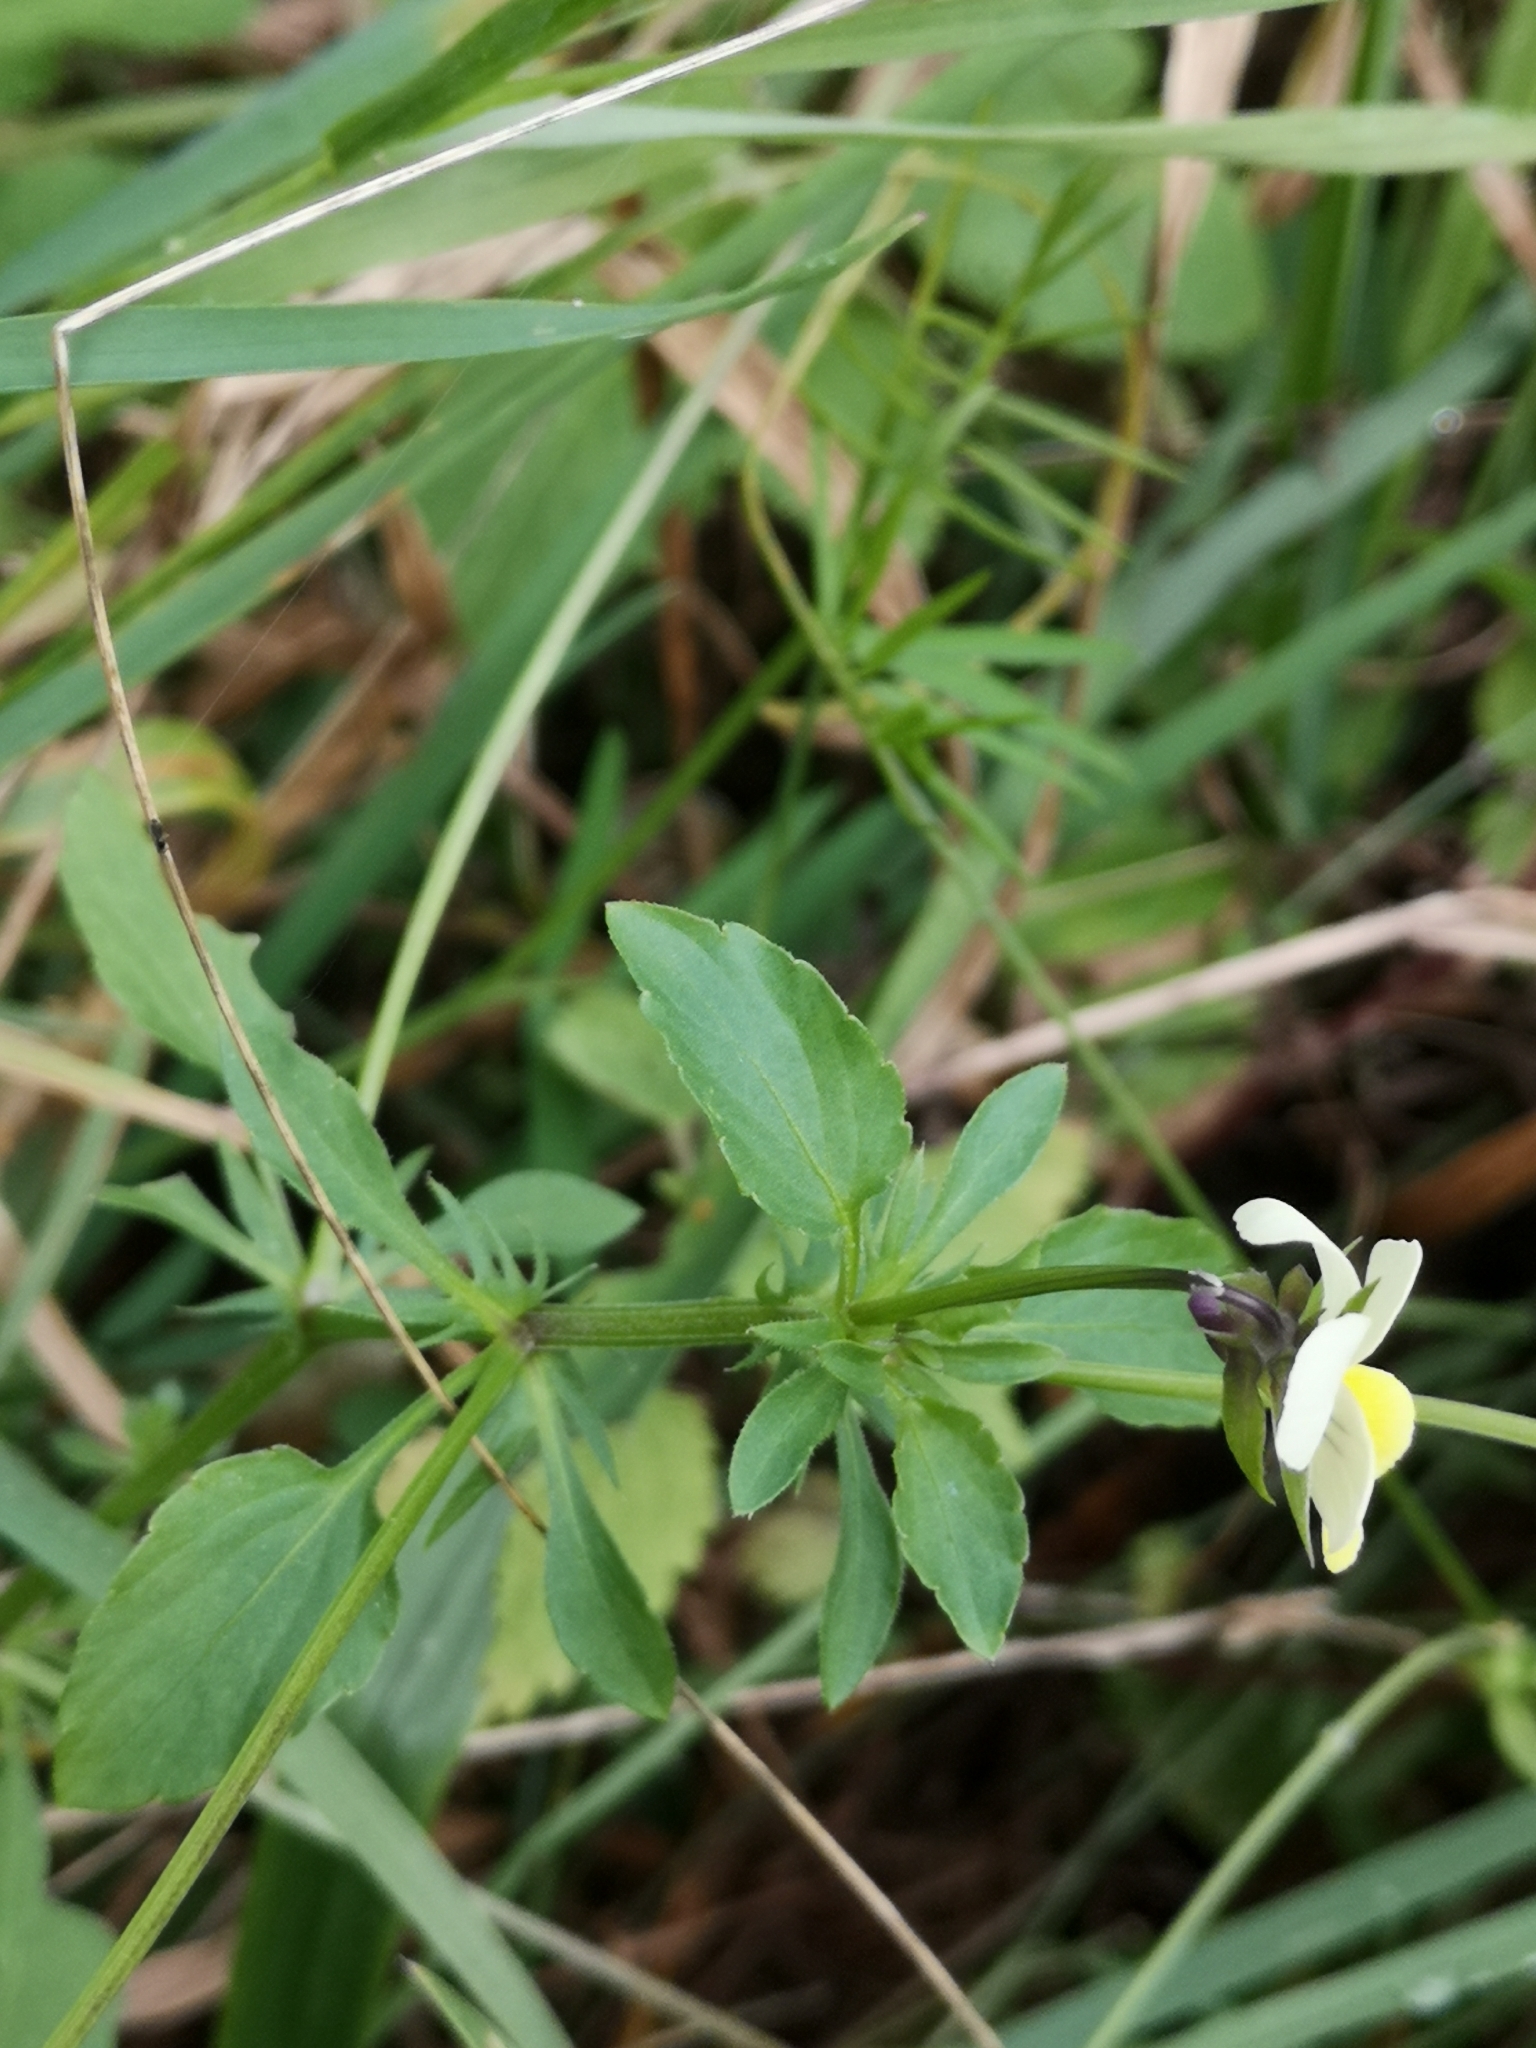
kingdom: Plantae
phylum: Tracheophyta
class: Magnoliopsida
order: Malpighiales
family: Violaceae
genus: Viola
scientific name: Viola arvensis
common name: Field pansy
